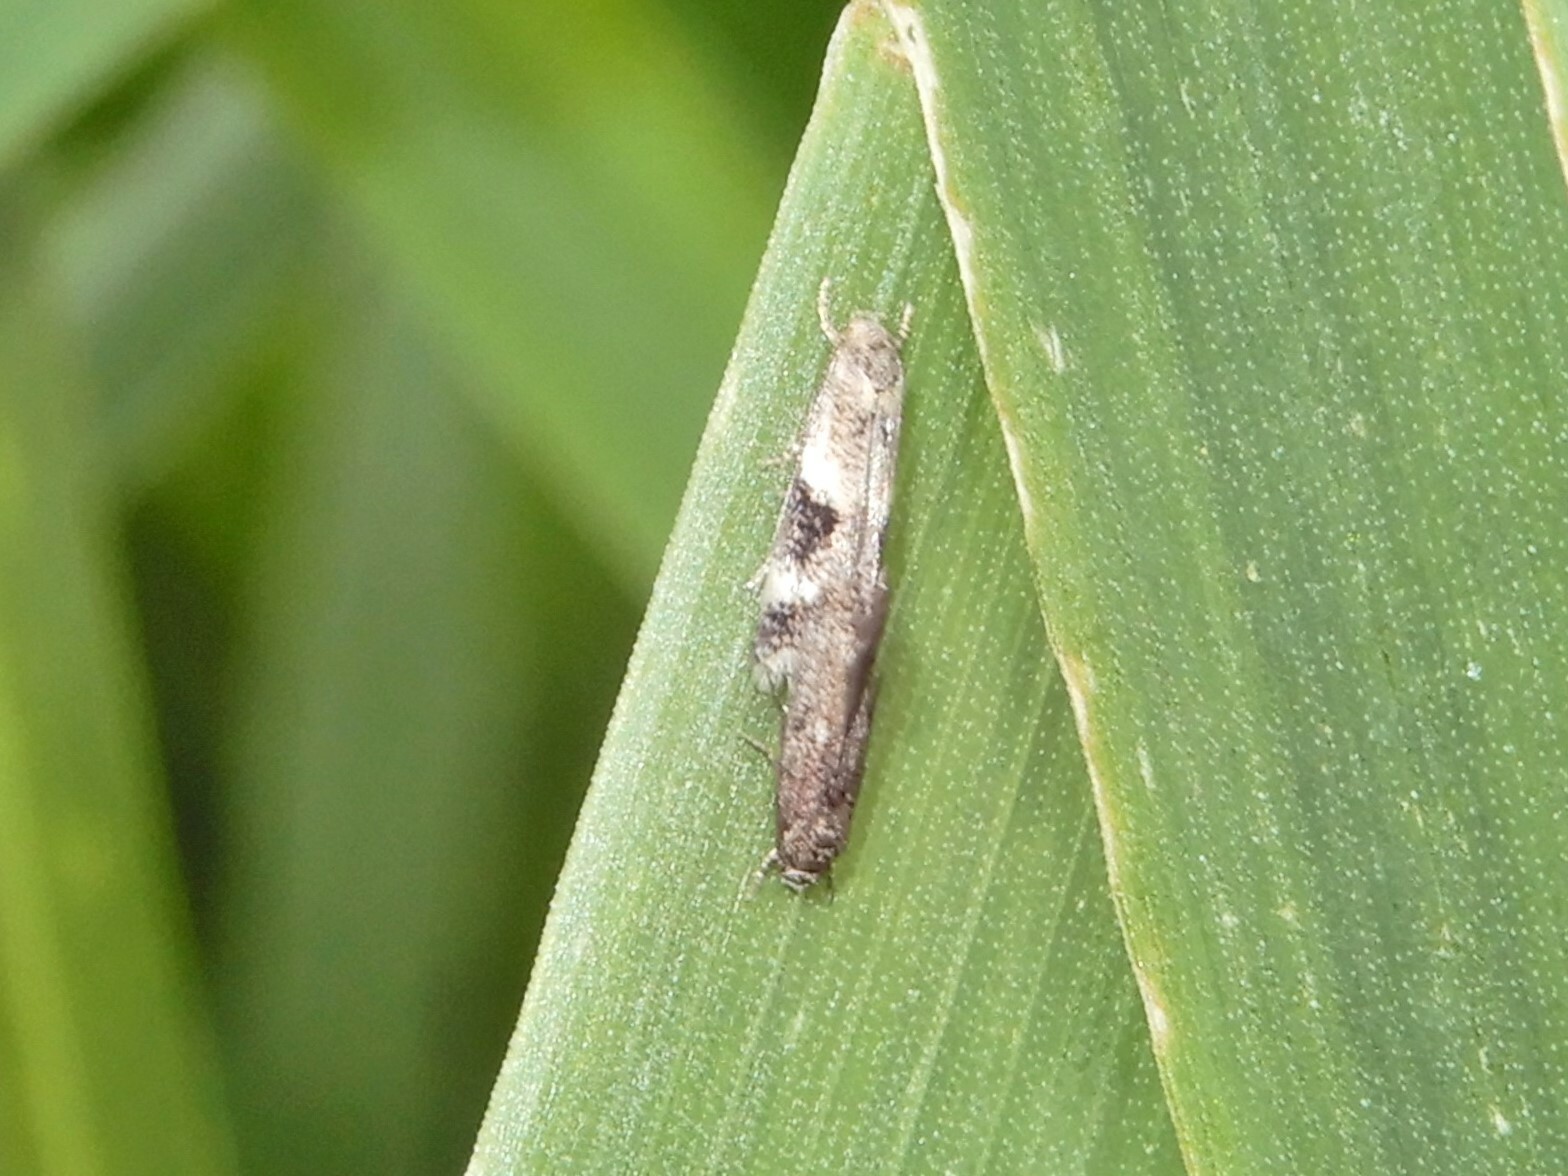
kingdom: Animalia
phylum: Arthropoda
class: Insecta
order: Lepidoptera
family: Elachistidae
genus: Elachista
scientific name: Elachista archaeonoma
